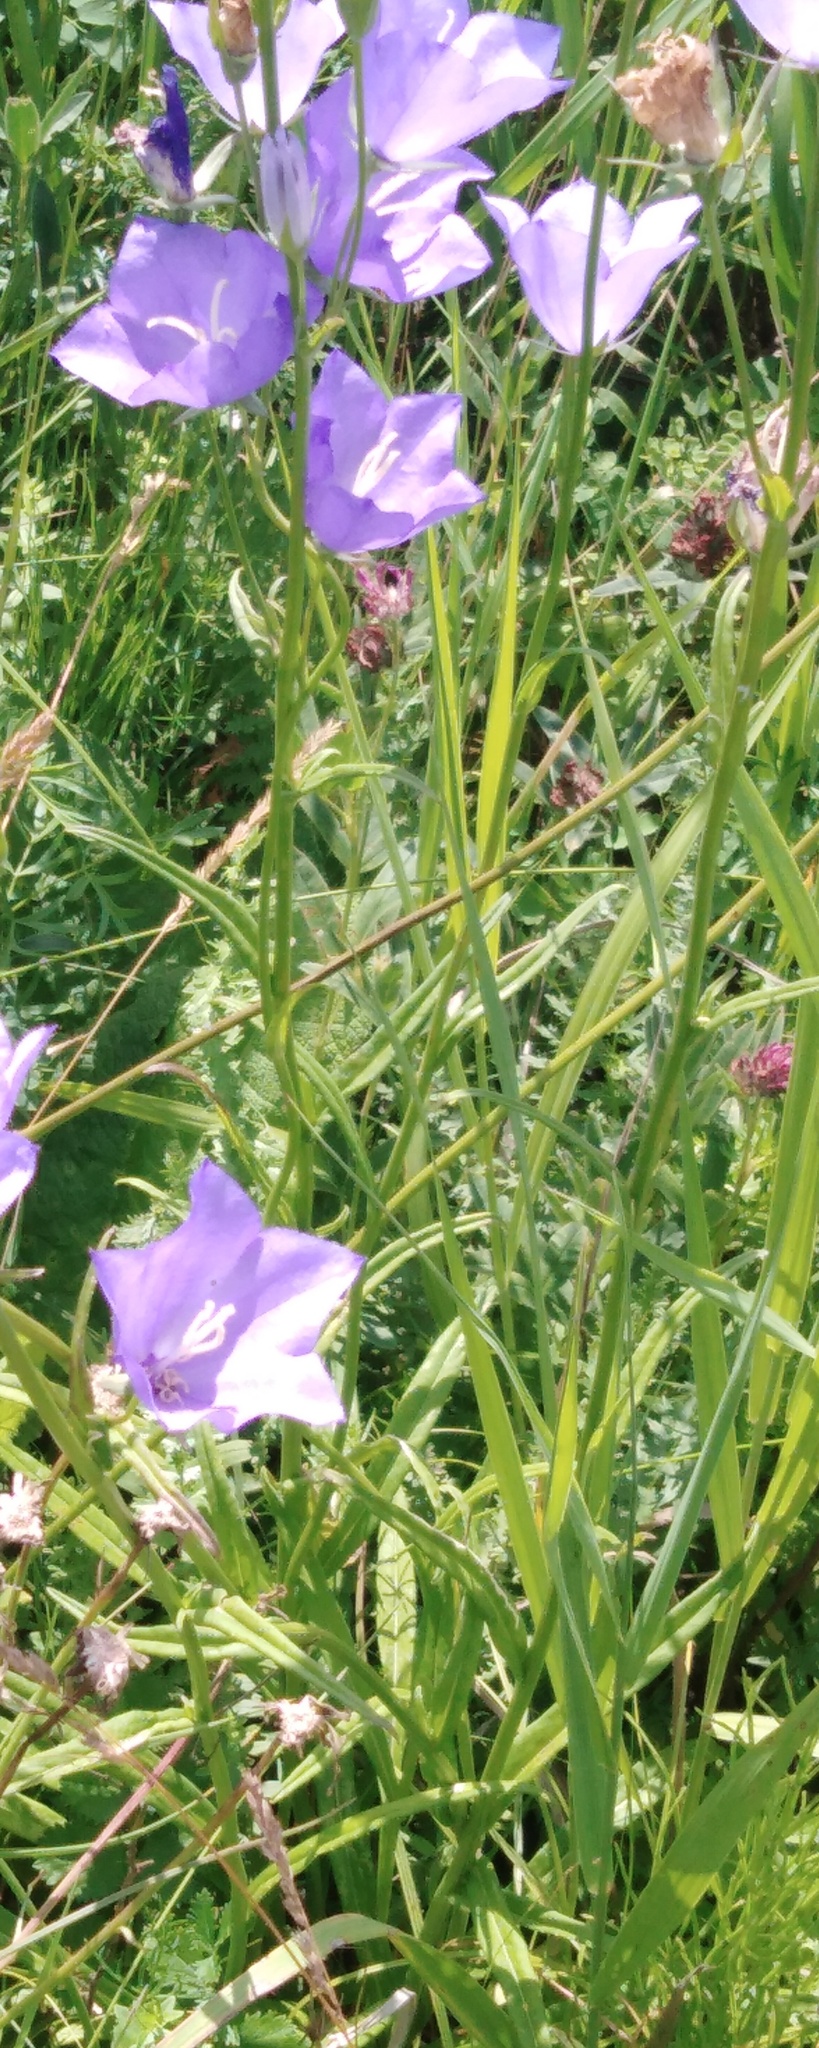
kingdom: Plantae
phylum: Tracheophyta
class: Magnoliopsida
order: Asterales
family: Campanulaceae
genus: Campanula
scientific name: Campanula persicifolia
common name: Peach-leaved bellflower
